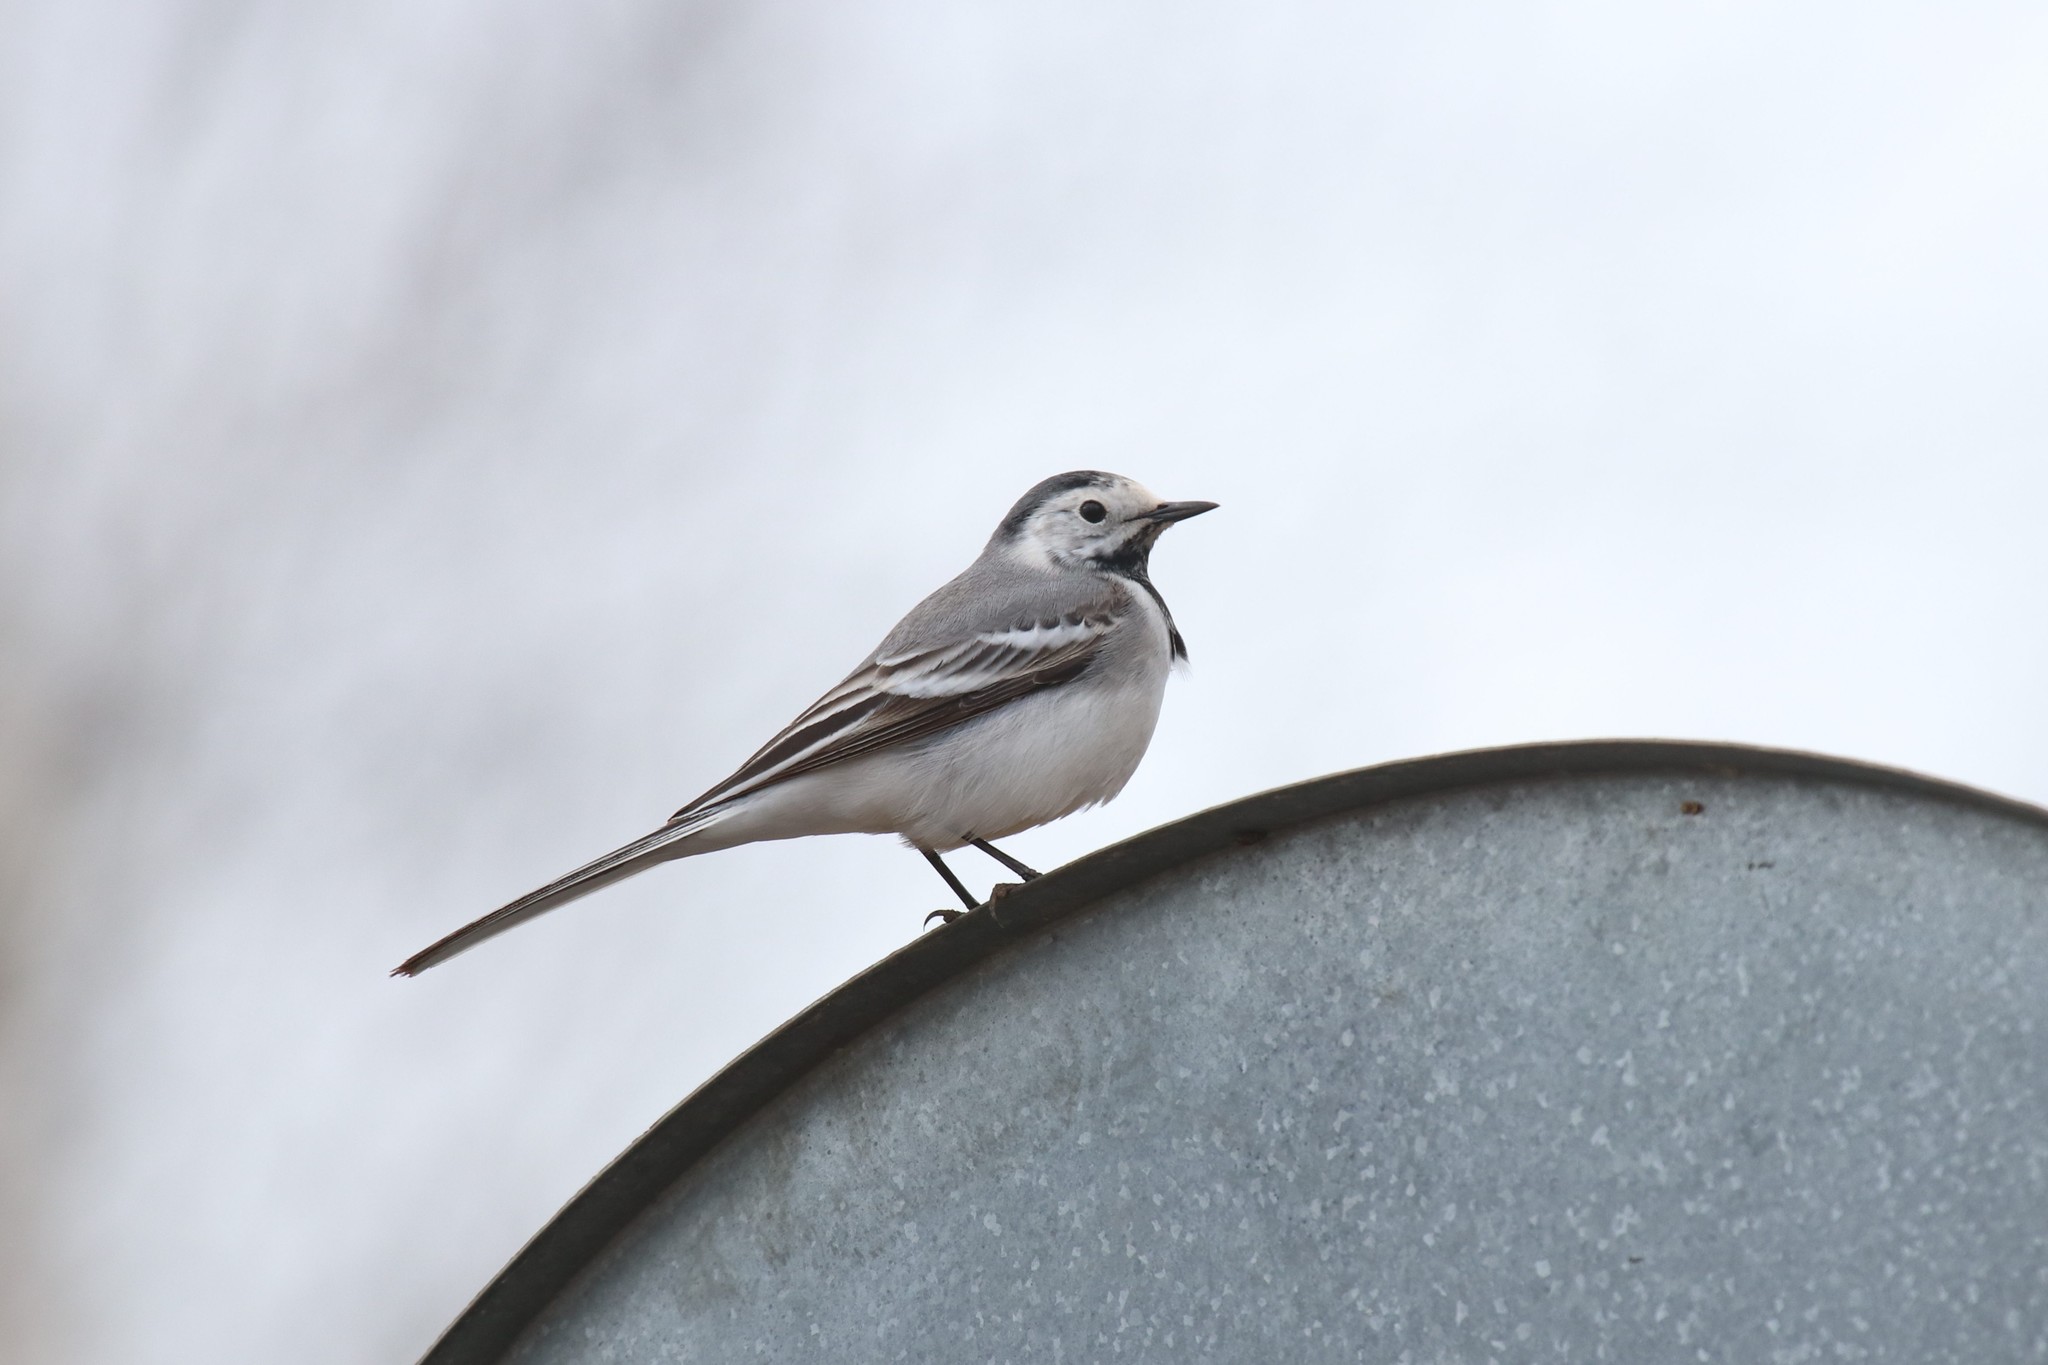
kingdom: Animalia
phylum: Chordata
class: Aves
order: Passeriformes
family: Motacillidae
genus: Motacilla
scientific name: Motacilla alba
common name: White wagtail
